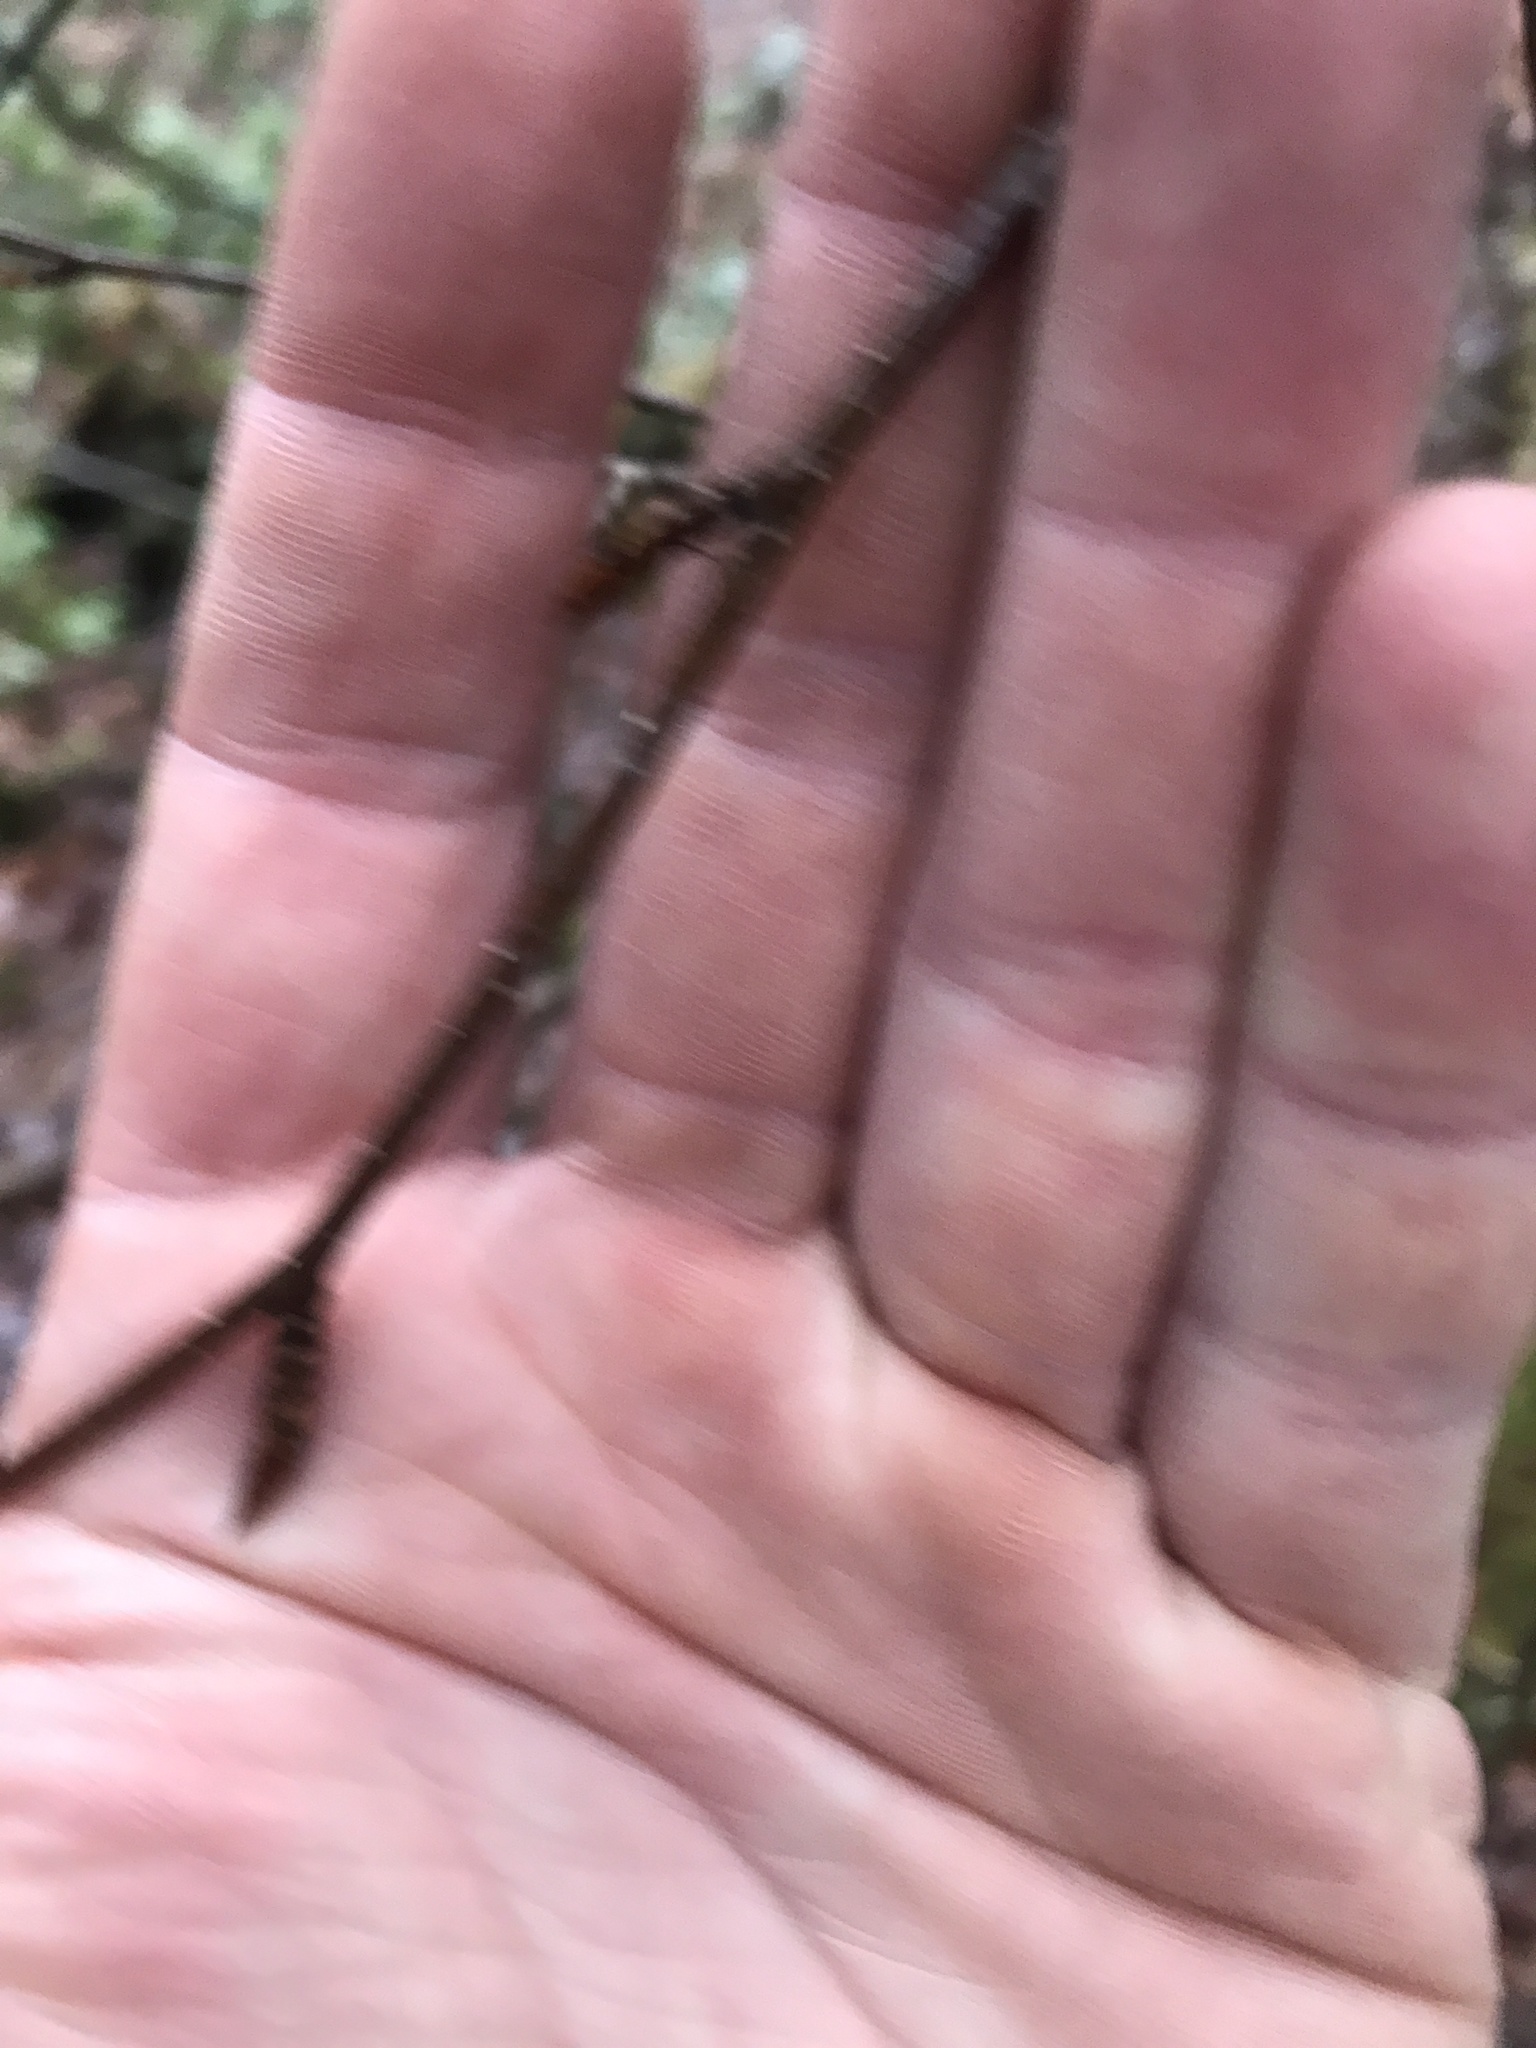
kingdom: Plantae
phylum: Tracheophyta
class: Magnoliopsida
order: Fagales
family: Betulaceae
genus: Betula
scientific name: Betula alleghaniensis
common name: Yellow birch
